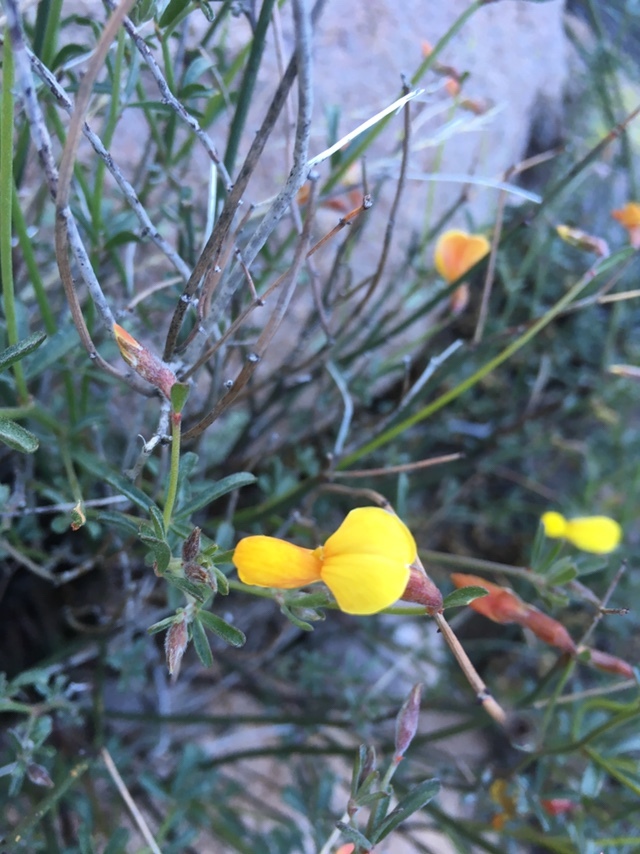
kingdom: Plantae
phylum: Tracheophyta
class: Magnoliopsida
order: Fabales
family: Fabaceae
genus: Acmispon
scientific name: Acmispon rigidus
